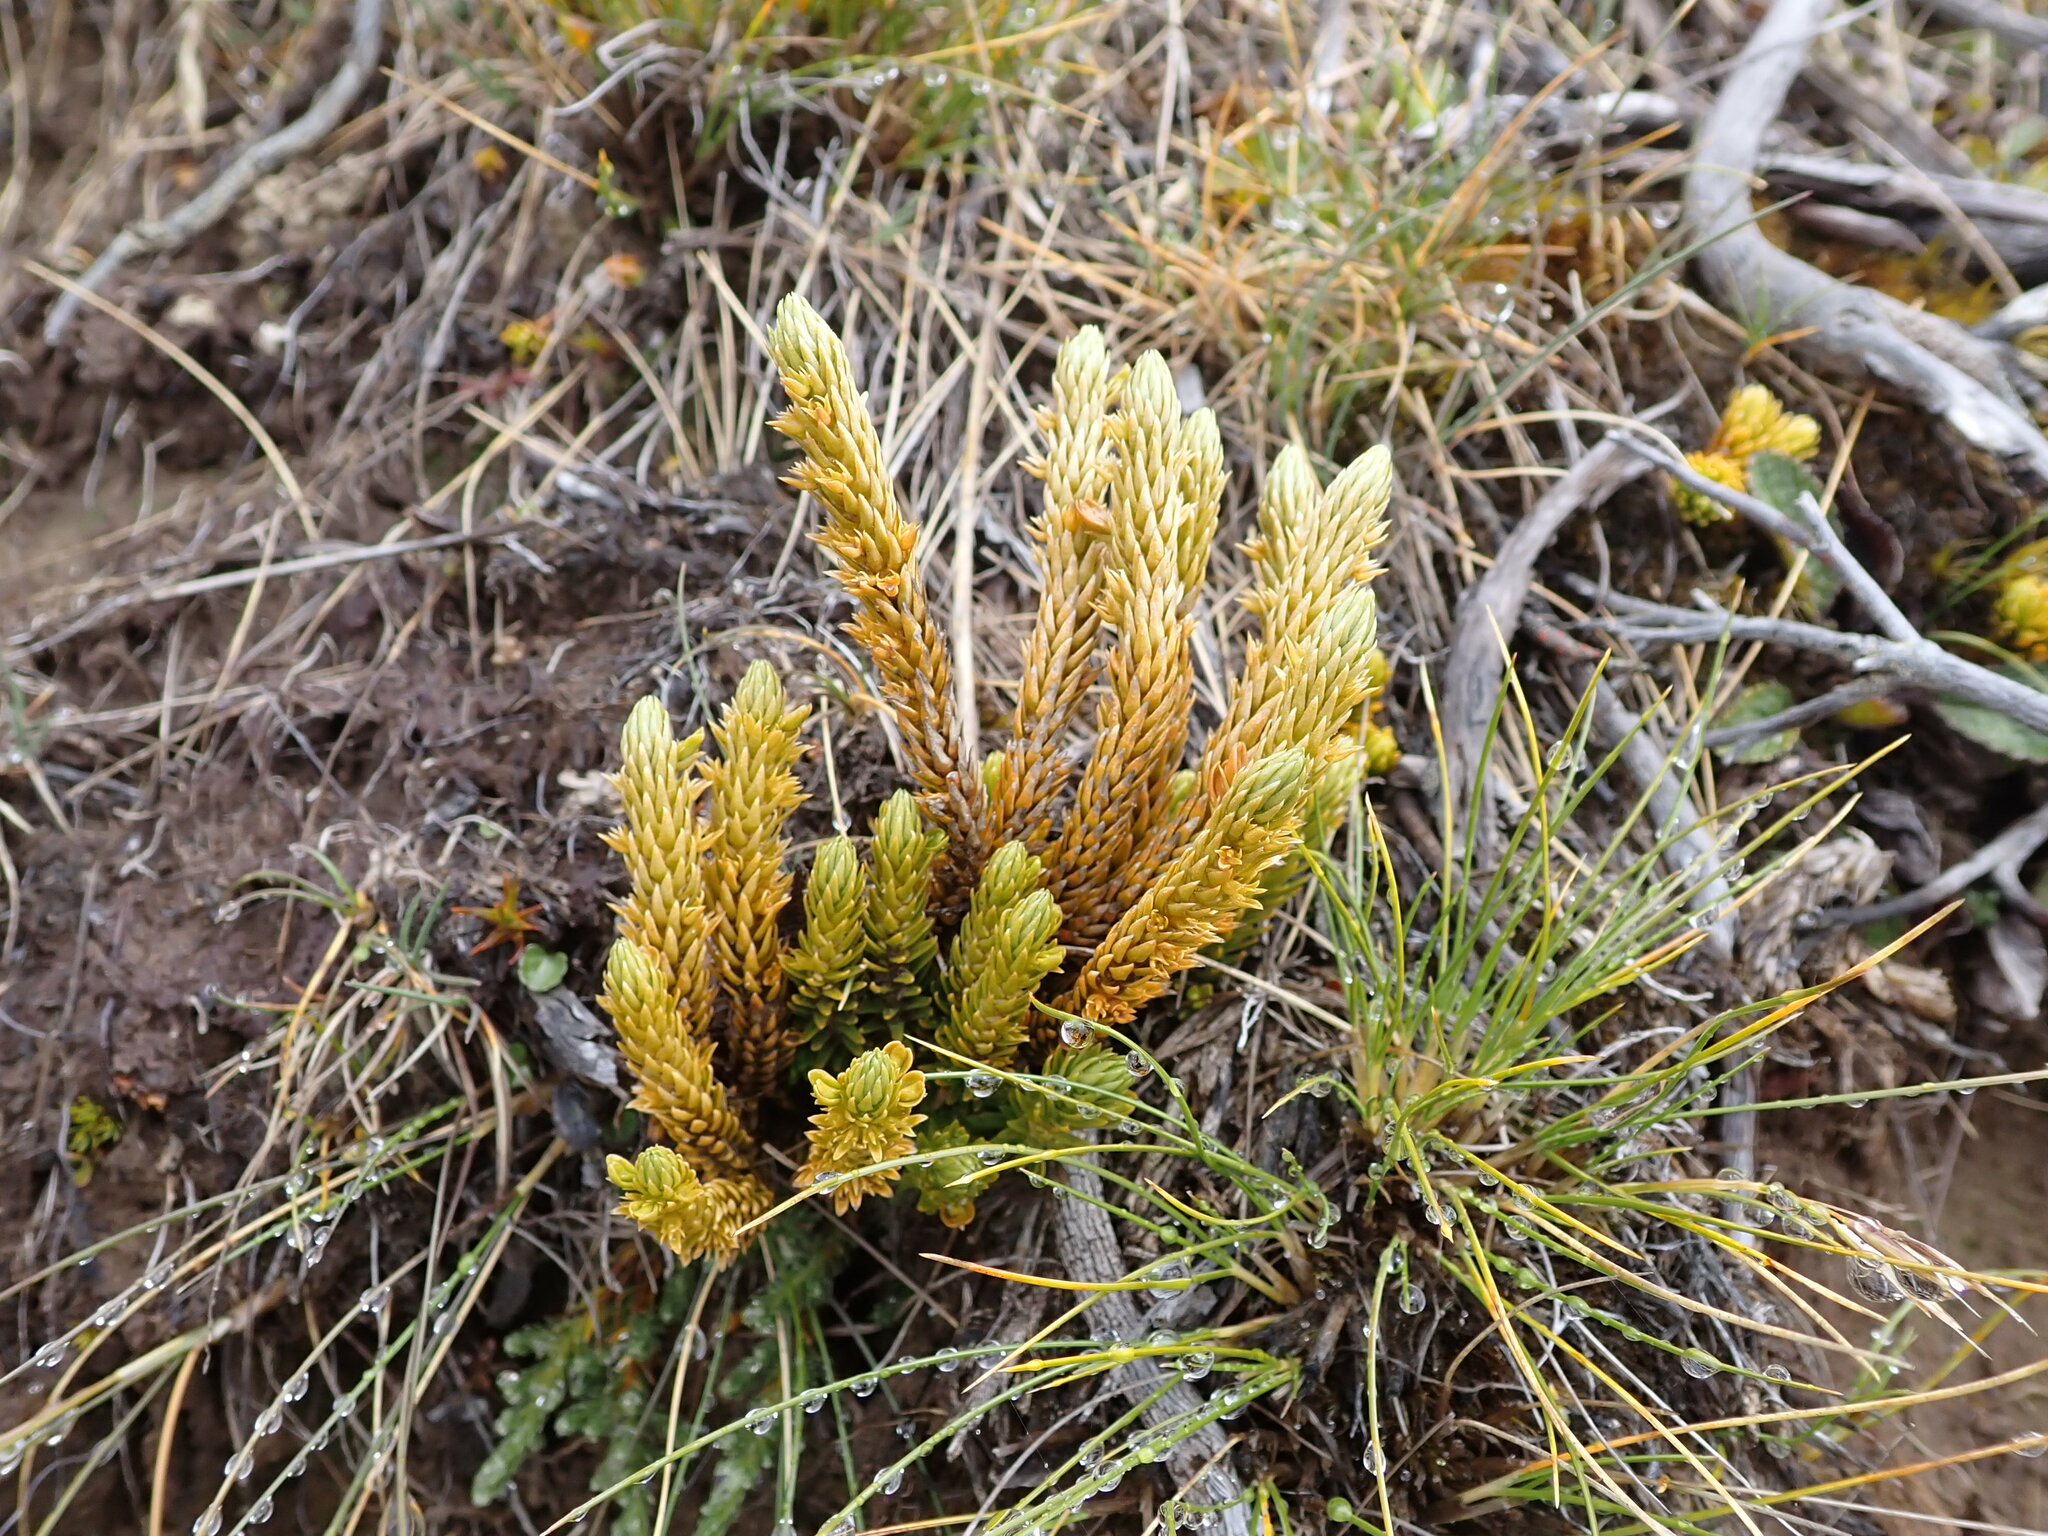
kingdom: Plantae
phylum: Tracheophyta
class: Lycopodiopsida
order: Lycopodiales
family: Lycopodiaceae
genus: Huperzia
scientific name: Huperzia australiana
